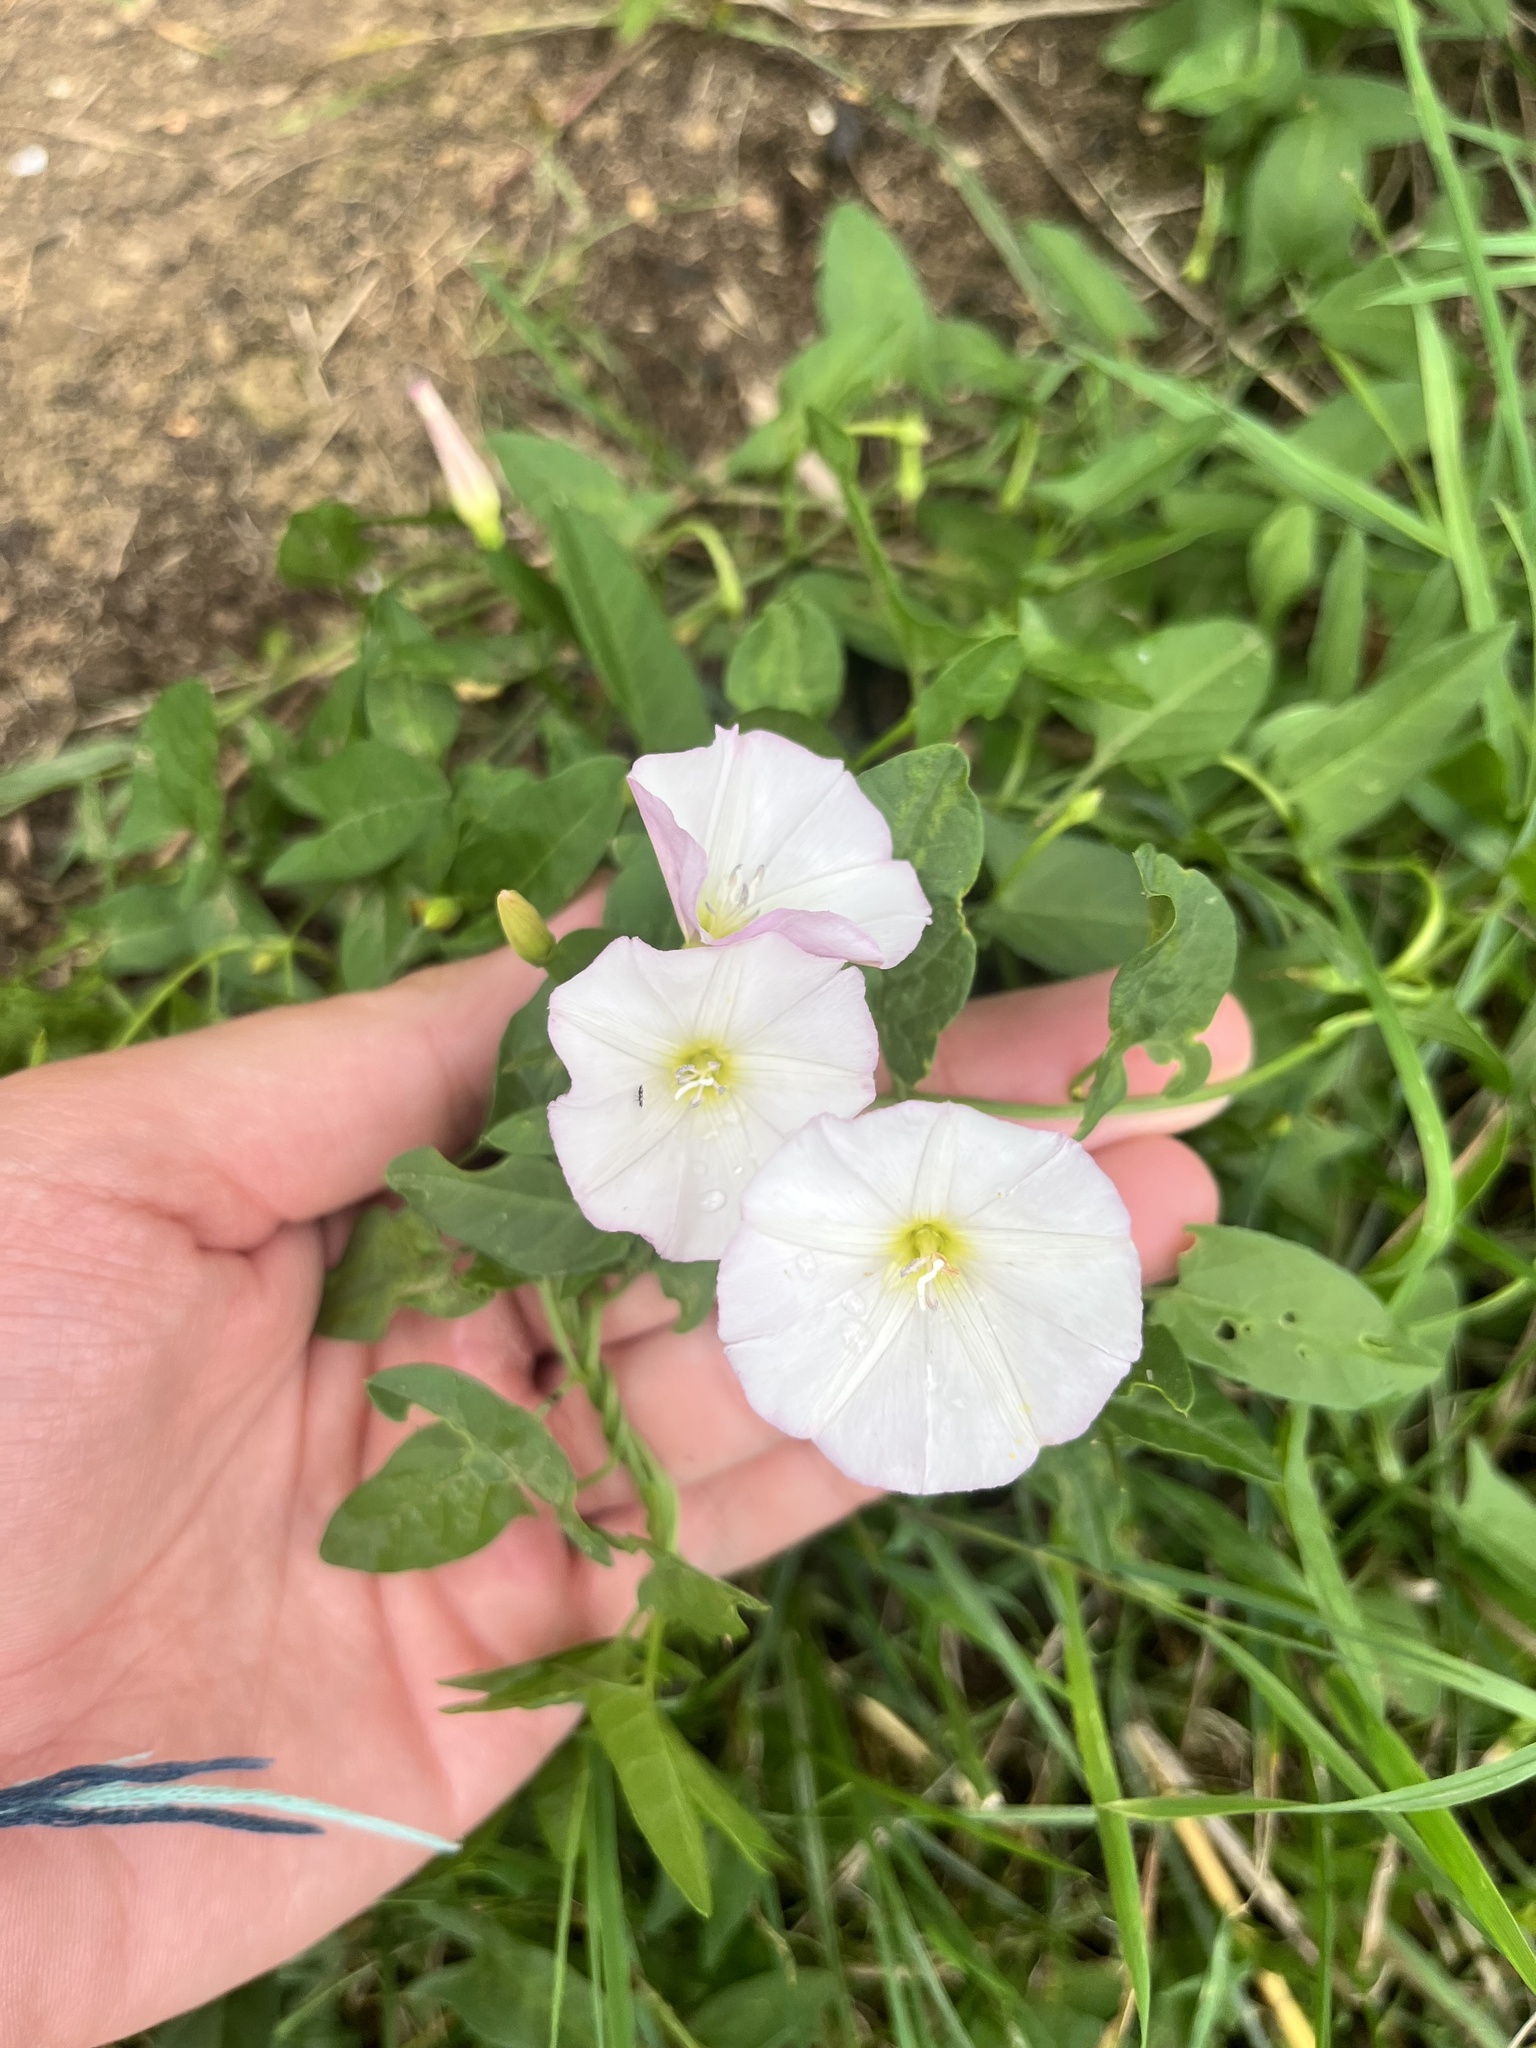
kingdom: Plantae
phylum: Tracheophyta
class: Magnoliopsida
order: Solanales
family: Convolvulaceae
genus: Convolvulus
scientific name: Convolvulus arvensis
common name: Field bindweed
